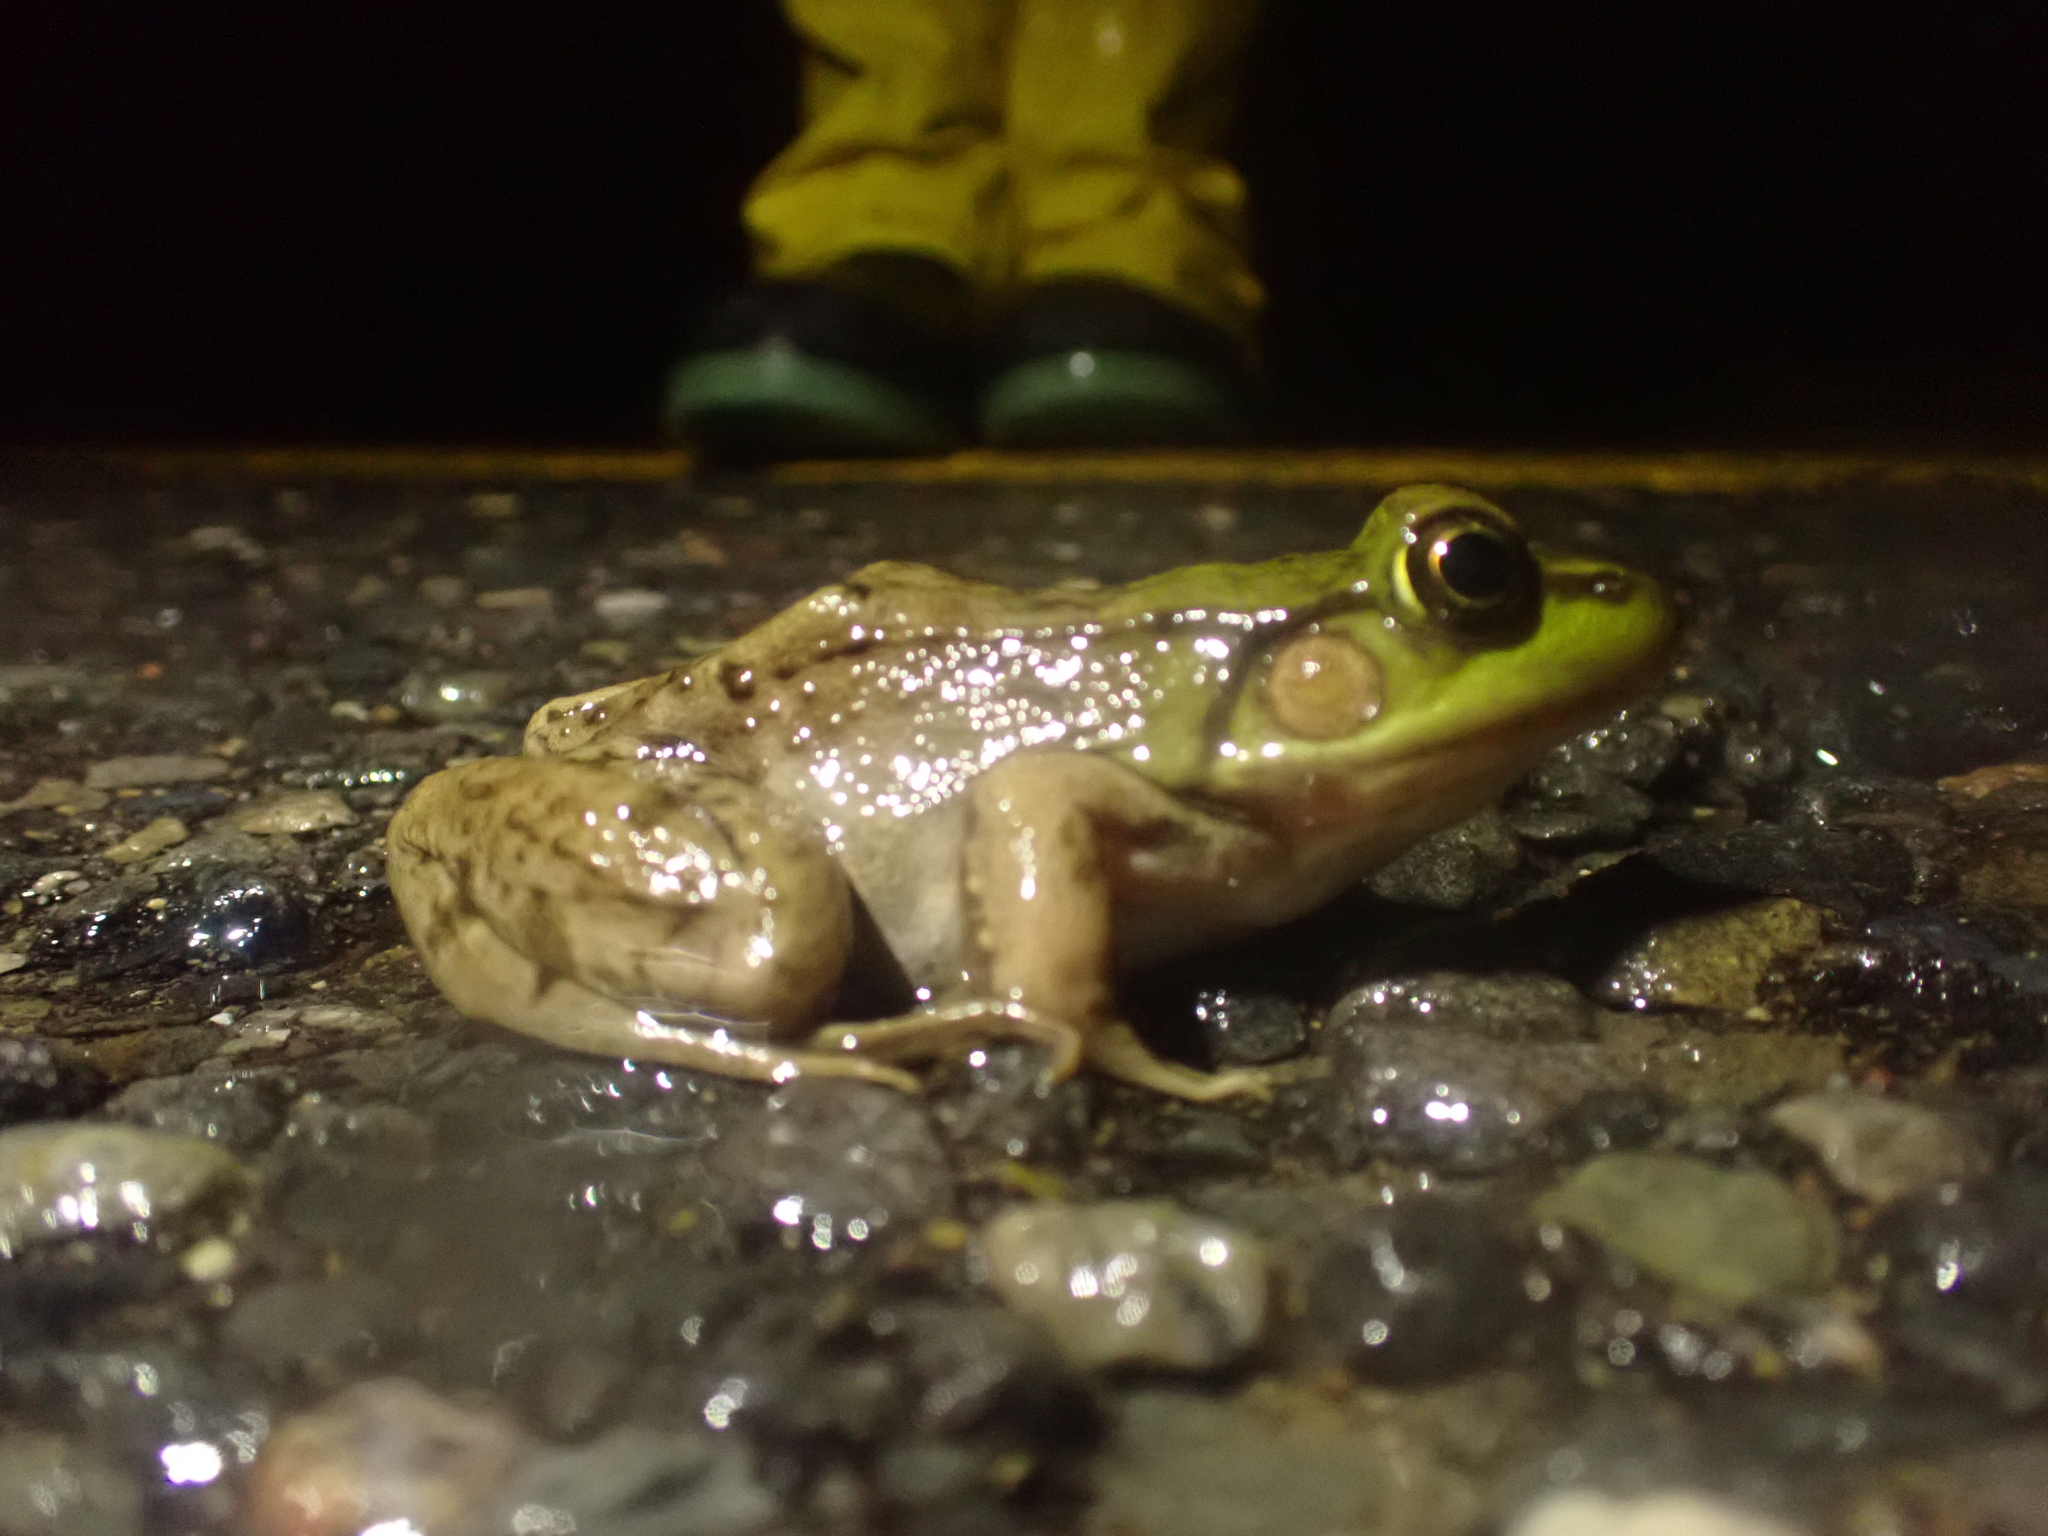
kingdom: Animalia
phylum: Chordata
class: Amphibia
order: Anura
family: Ranidae
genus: Lithobates
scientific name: Lithobates clamitans
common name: Green frog
